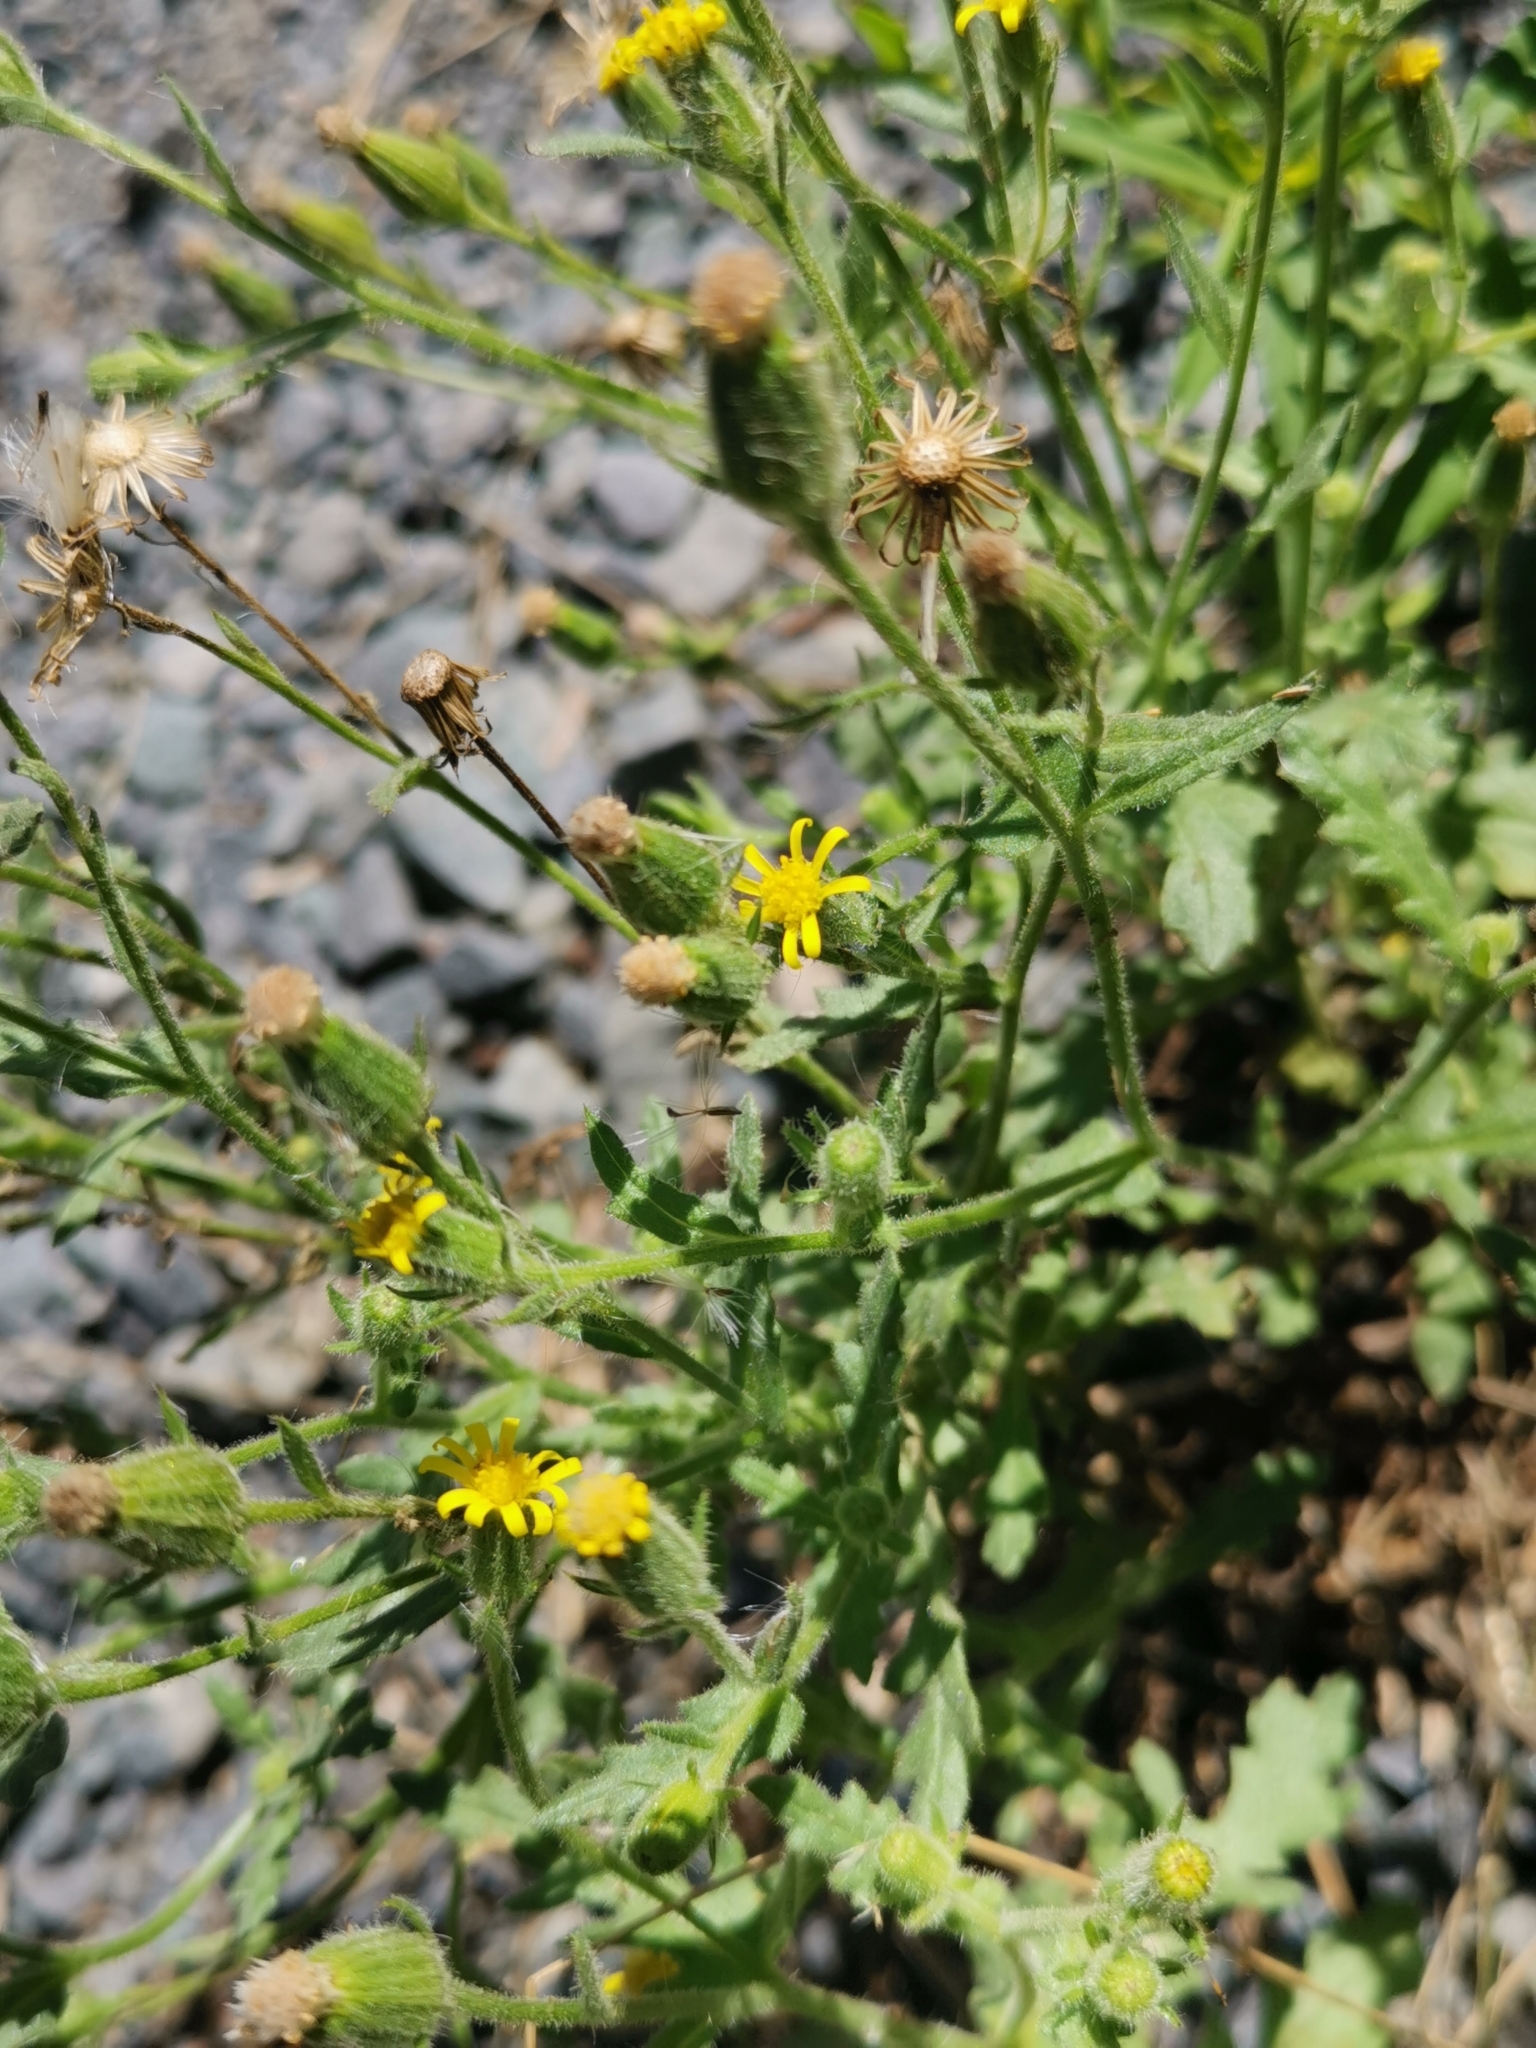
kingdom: Plantae
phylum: Tracheophyta
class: Magnoliopsida
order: Asterales
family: Asteraceae
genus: Senecio
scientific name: Senecio viscosus
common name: Sticky groundsel
